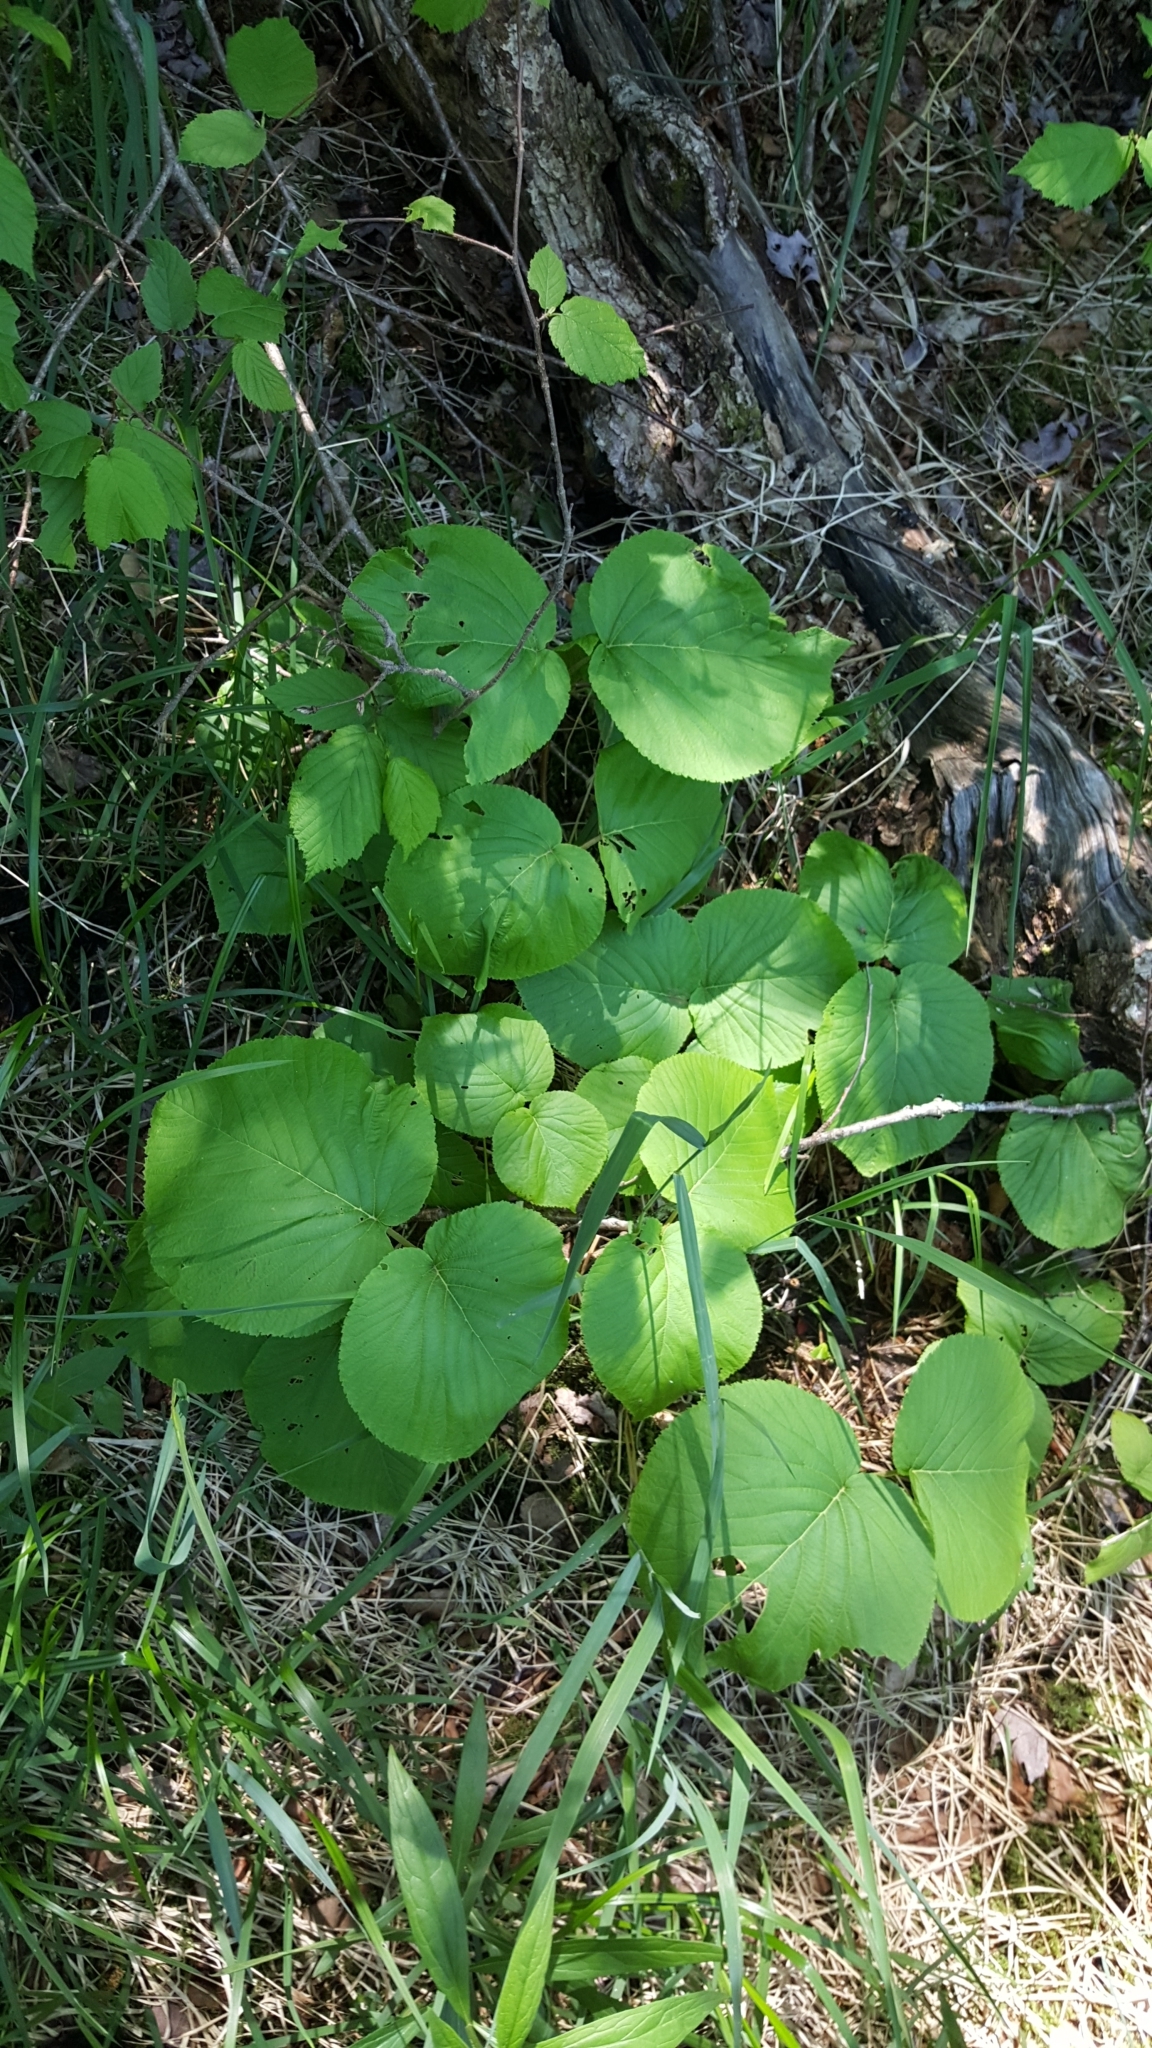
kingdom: Plantae
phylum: Tracheophyta
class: Magnoliopsida
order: Dipsacales
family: Viburnaceae
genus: Viburnum
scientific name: Viburnum lantanoides
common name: Hobblebush
